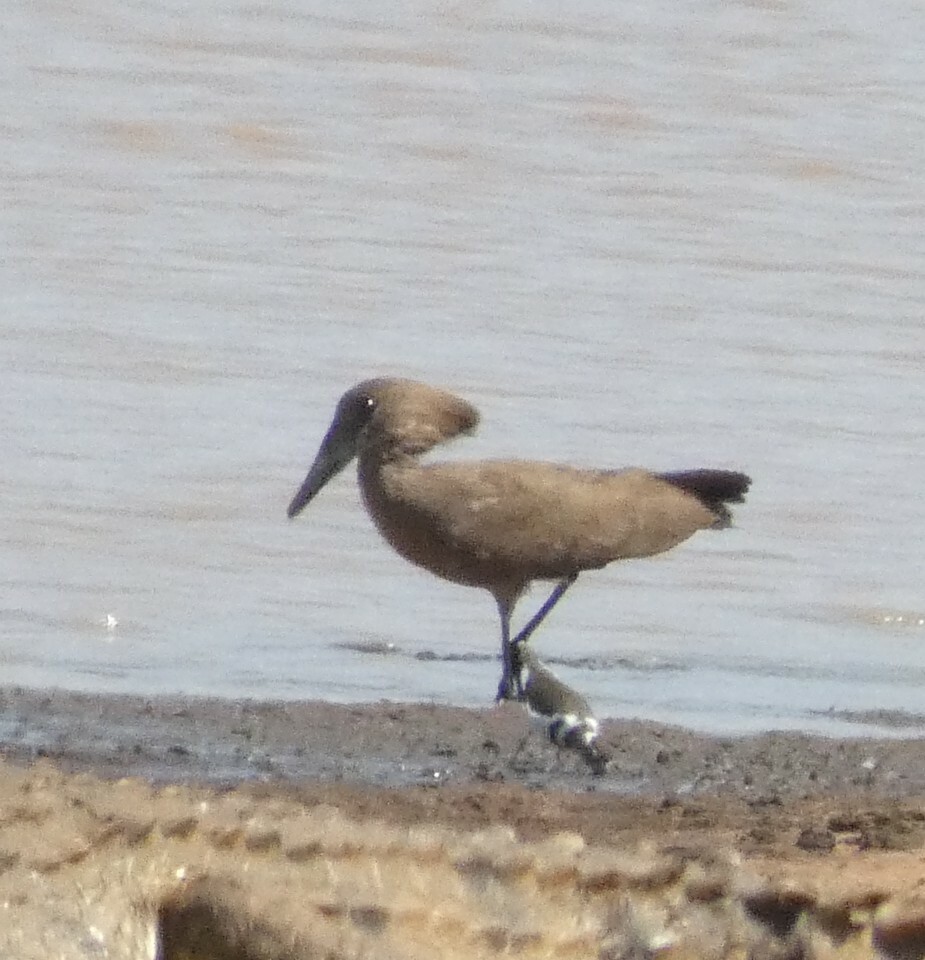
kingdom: Animalia
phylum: Chordata
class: Aves
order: Pelecaniformes
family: Scopidae
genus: Scopus
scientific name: Scopus umbretta
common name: Hamerkop
